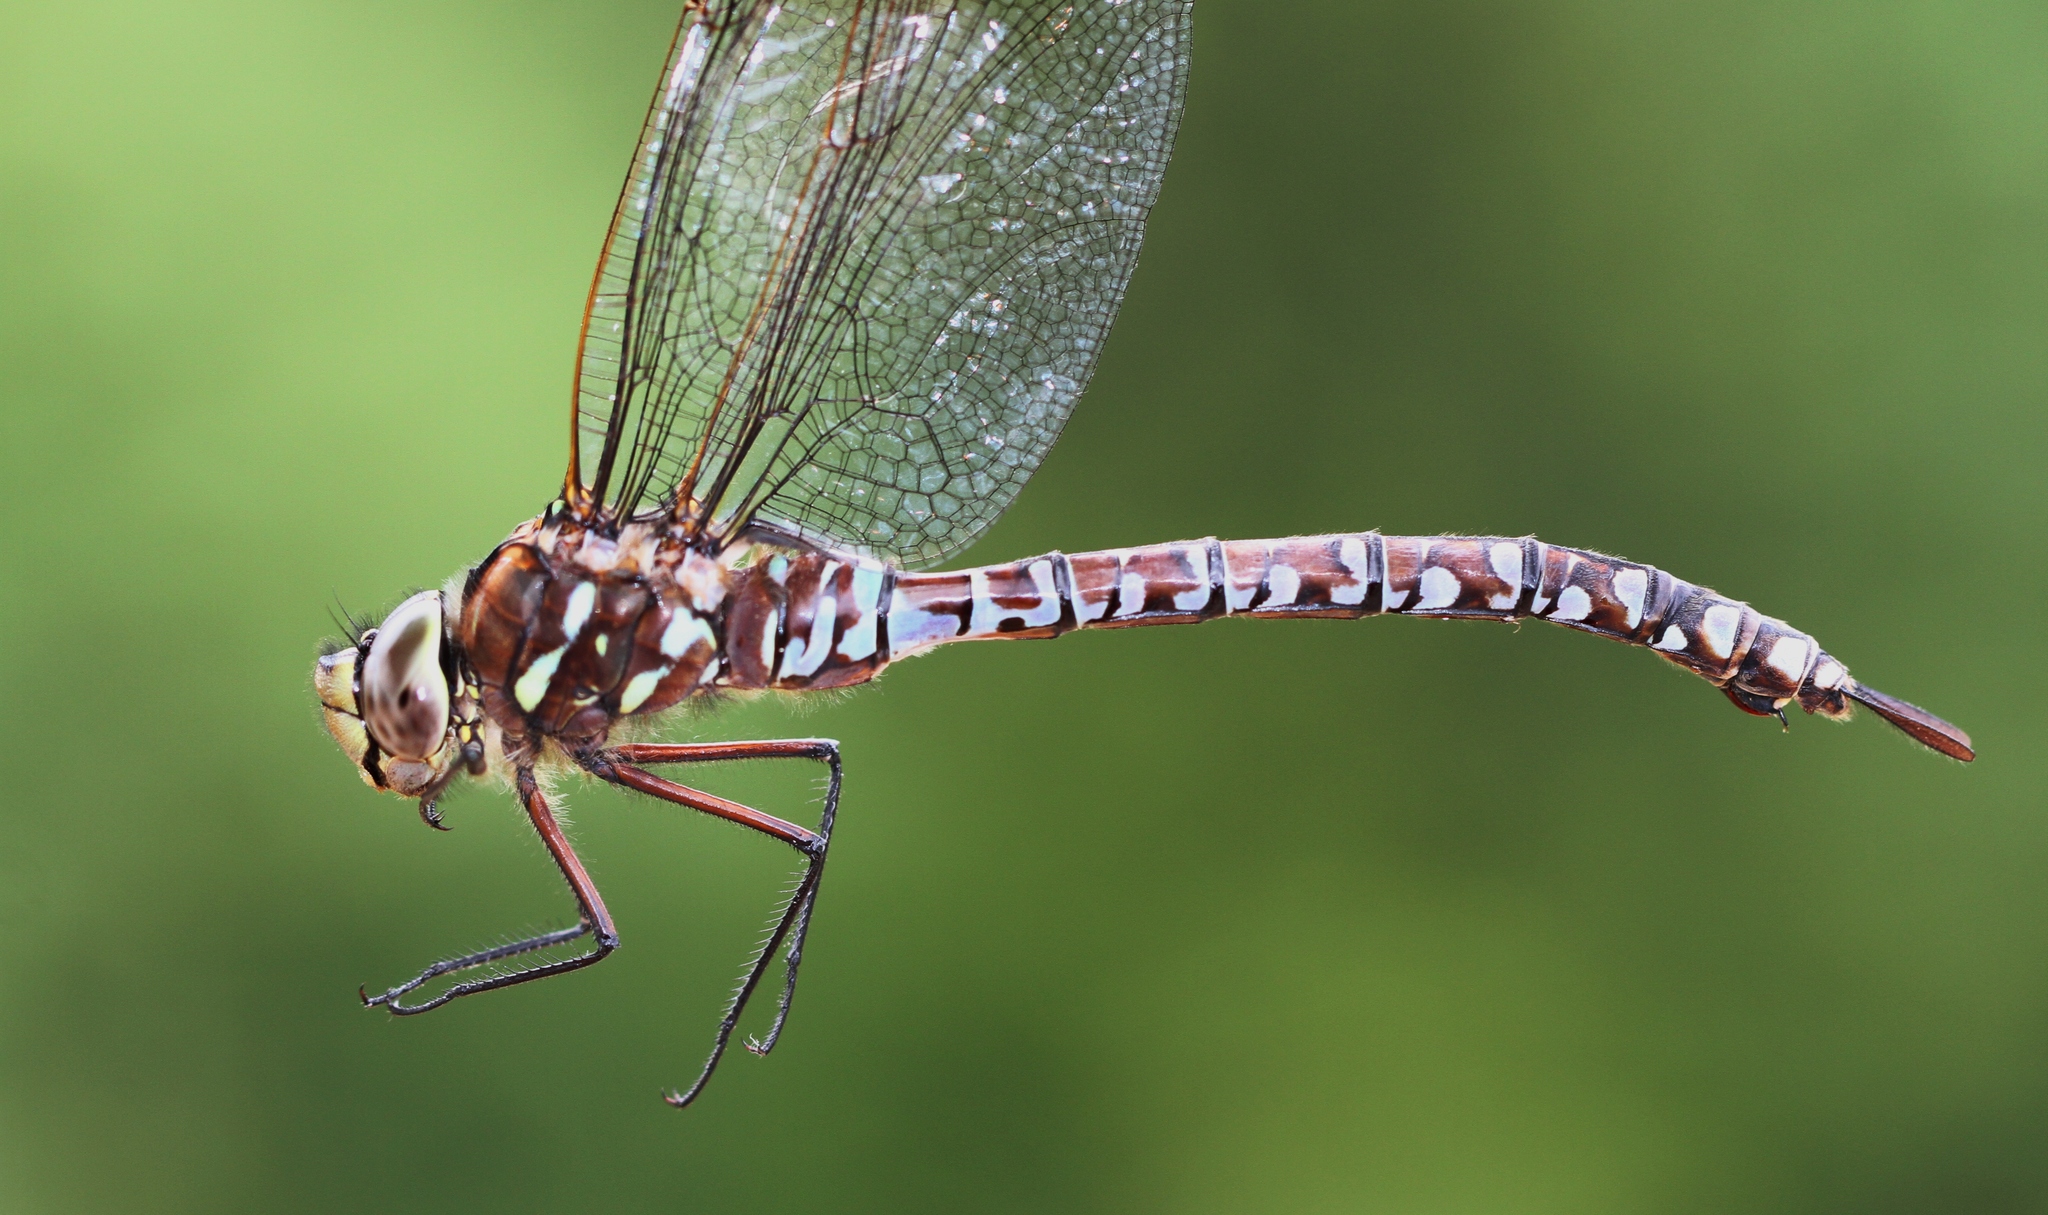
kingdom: Animalia
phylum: Arthropoda
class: Insecta
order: Odonata
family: Aeshnidae
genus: Aeshna
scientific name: Aeshna interrupta
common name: Variable darner
